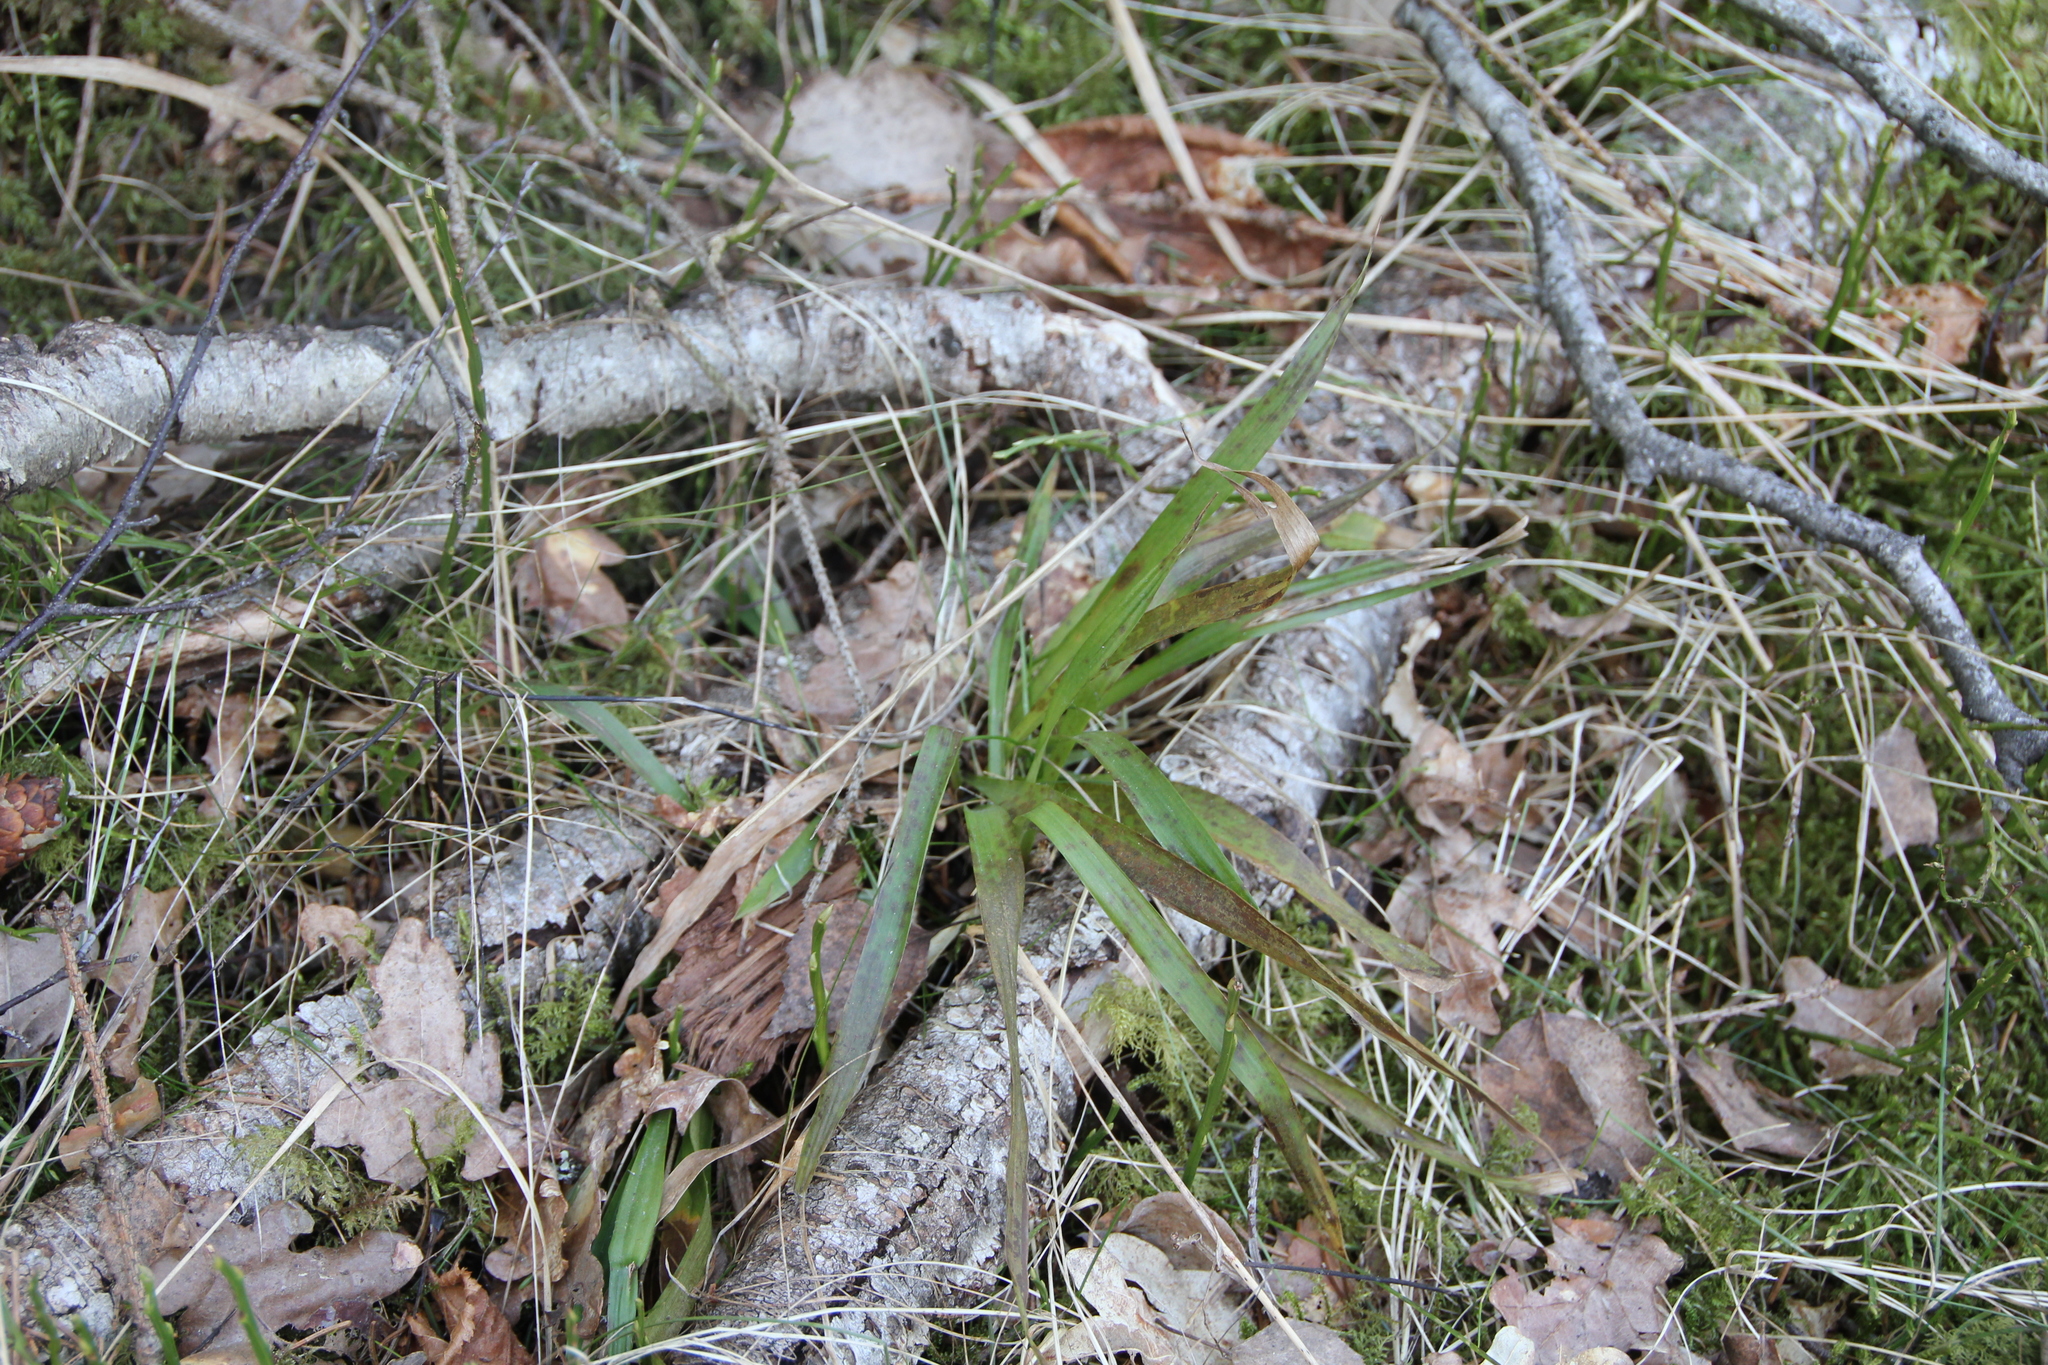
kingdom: Plantae
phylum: Tracheophyta
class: Liliopsida
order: Poales
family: Juncaceae
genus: Luzula
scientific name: Luzula pilosa
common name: Hairy wood-rush
